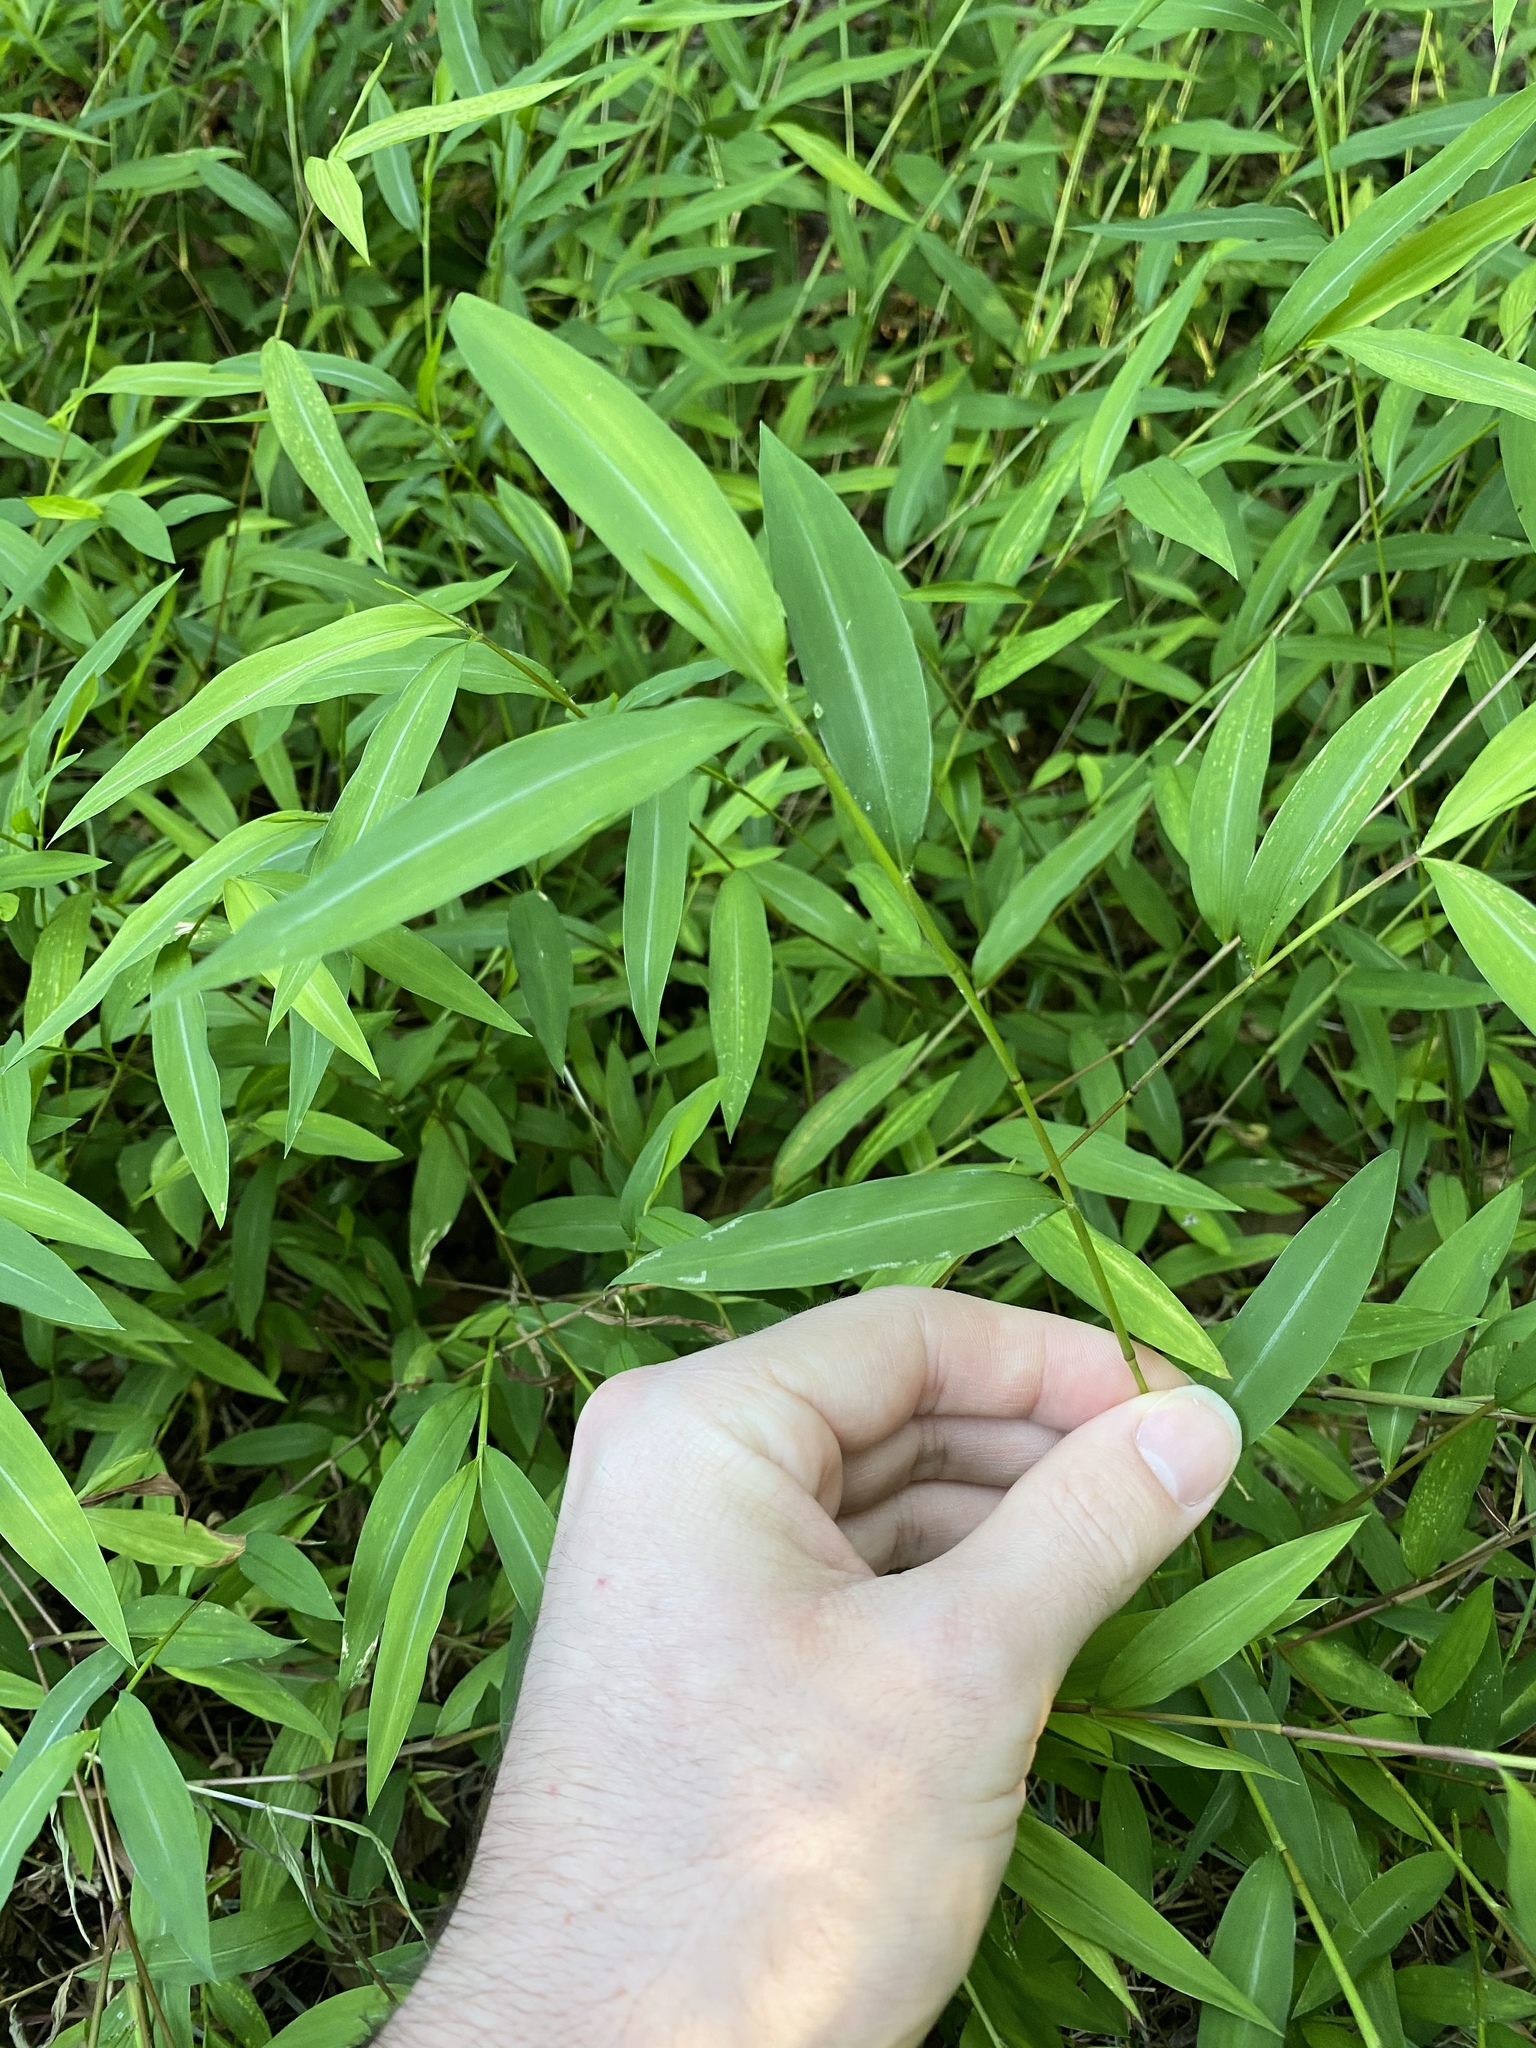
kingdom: Plantae
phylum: Tracheophyta
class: Liliopsida
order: Poales
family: Poaceae
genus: Microstegium
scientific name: Microstegium vimineum
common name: Japanese stiltgrass
